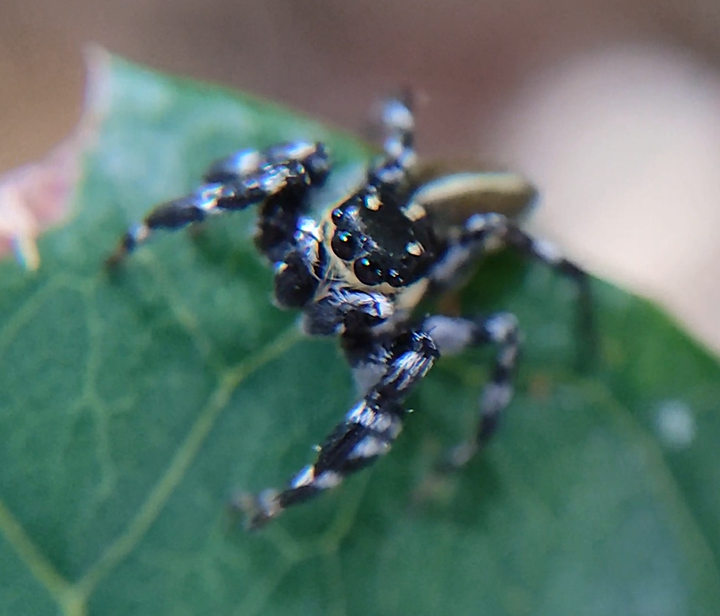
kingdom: Animalia
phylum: Arthropoda
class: Arachnida
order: Araneae
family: Salticidae
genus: Phiale
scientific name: Phiale tristis
